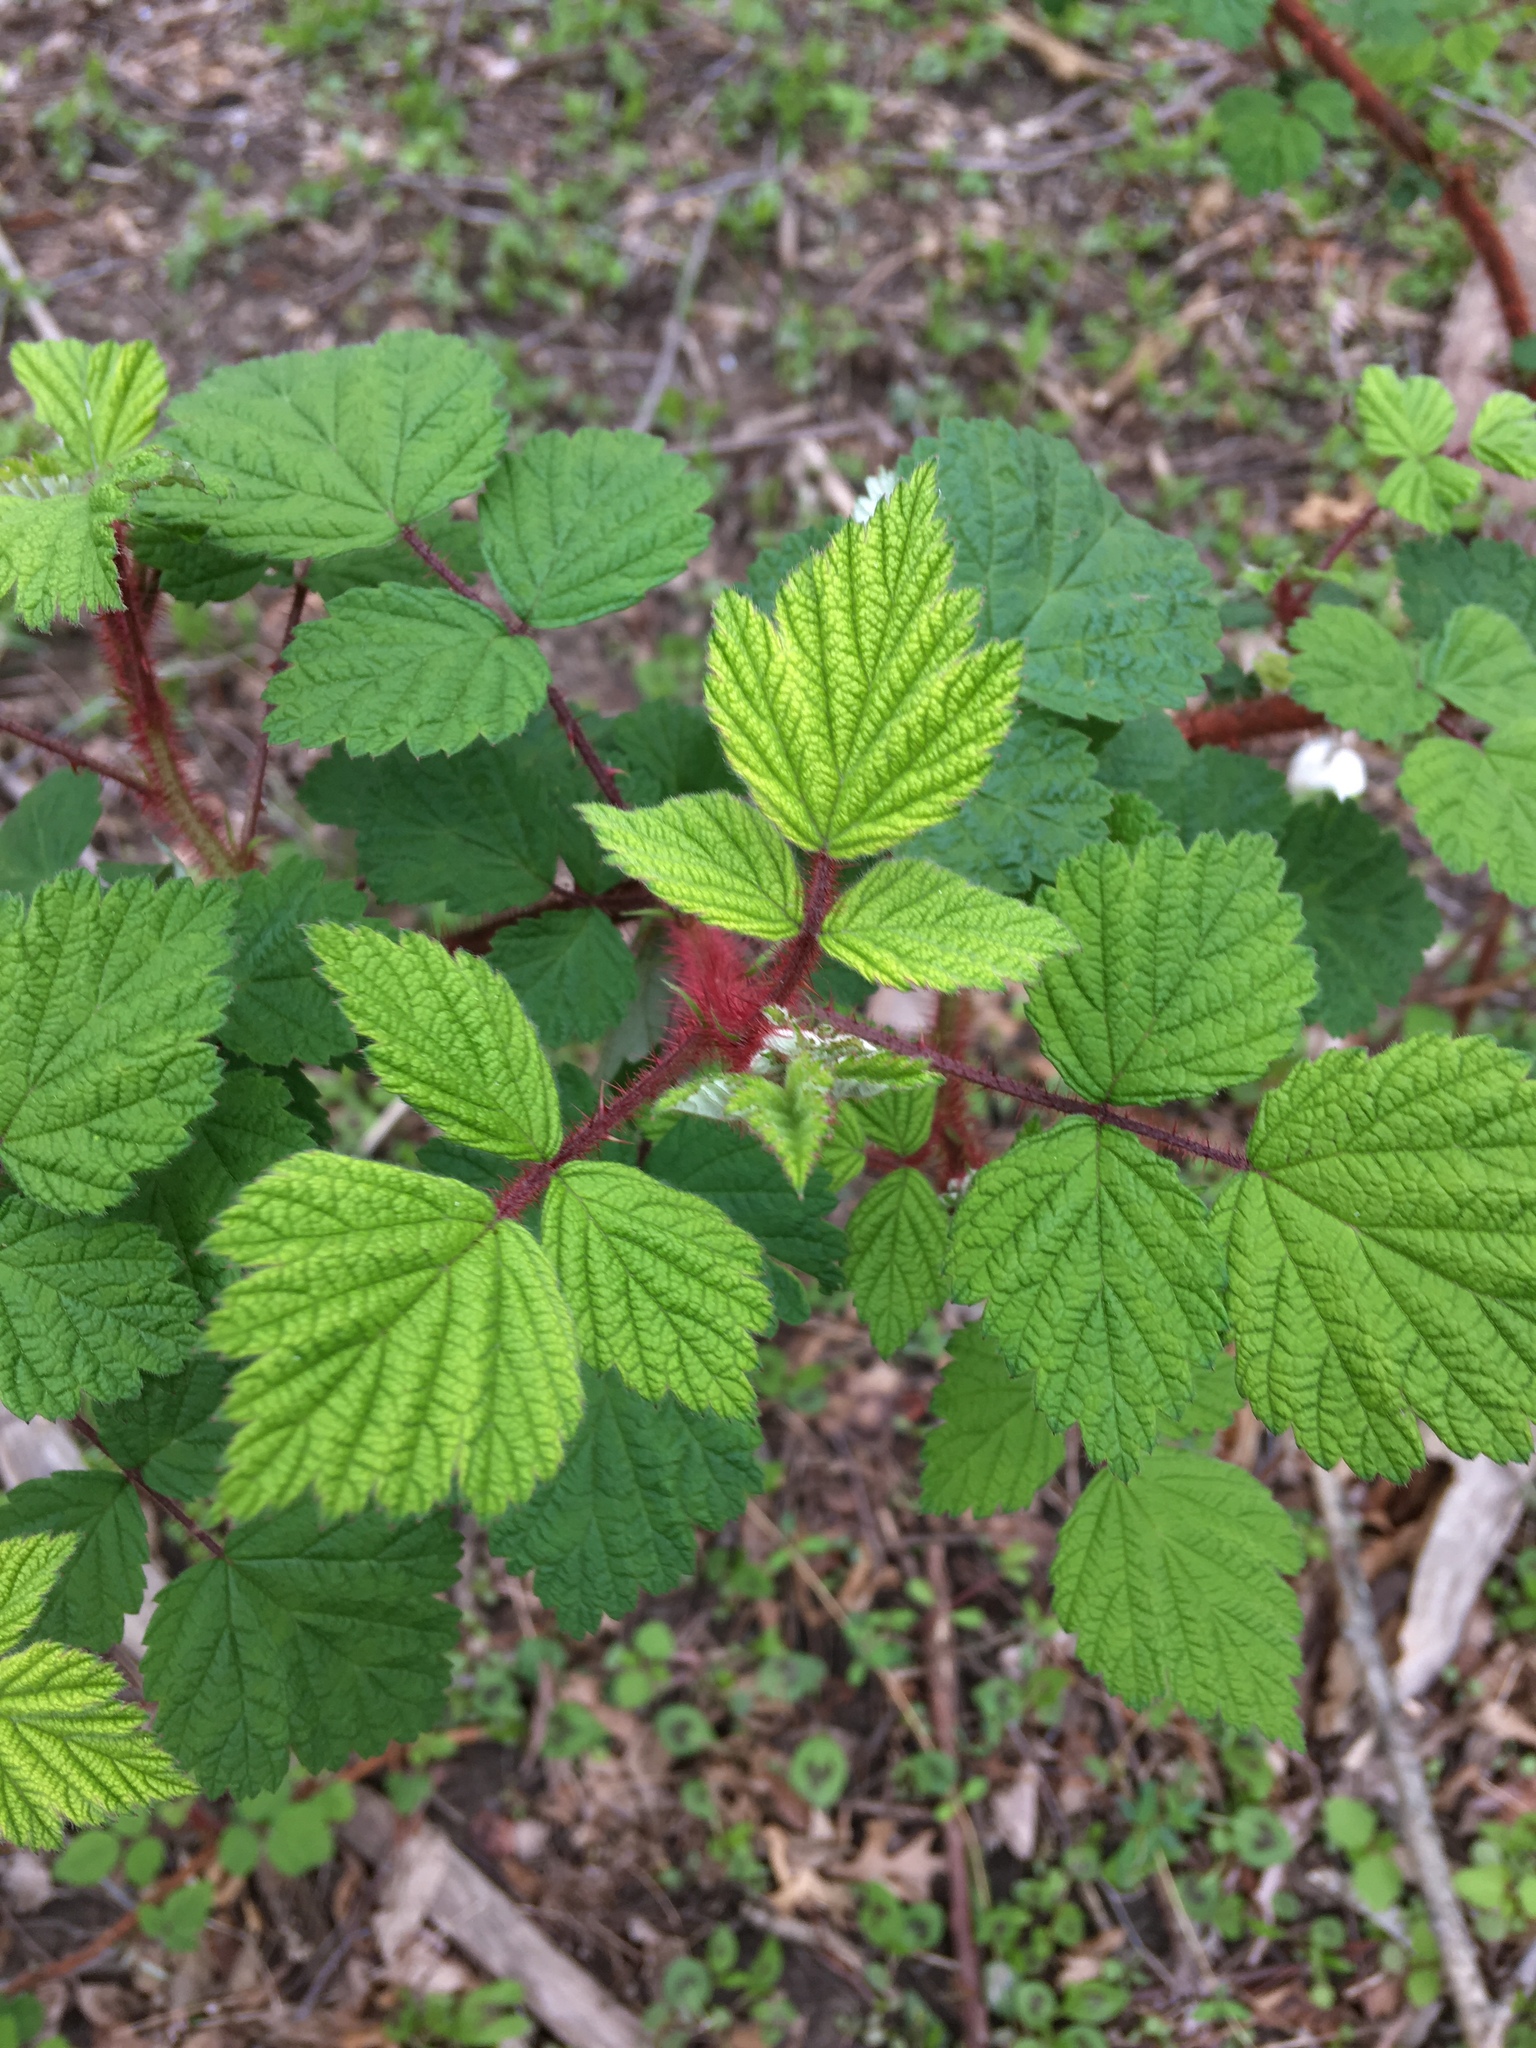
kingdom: Plantae
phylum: Tracheophyta
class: Magnoliopsida
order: Rosales
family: Rosaceae
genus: Rubus
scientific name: Rubus phoenicolasius
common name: Japanese wineberry
